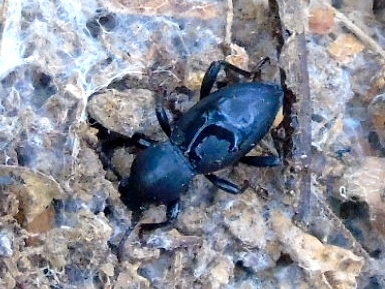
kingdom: Animalia
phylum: Arthropoda
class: Insecta
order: Coleoptera
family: Tenebrionidae
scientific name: Tenebrionidae
